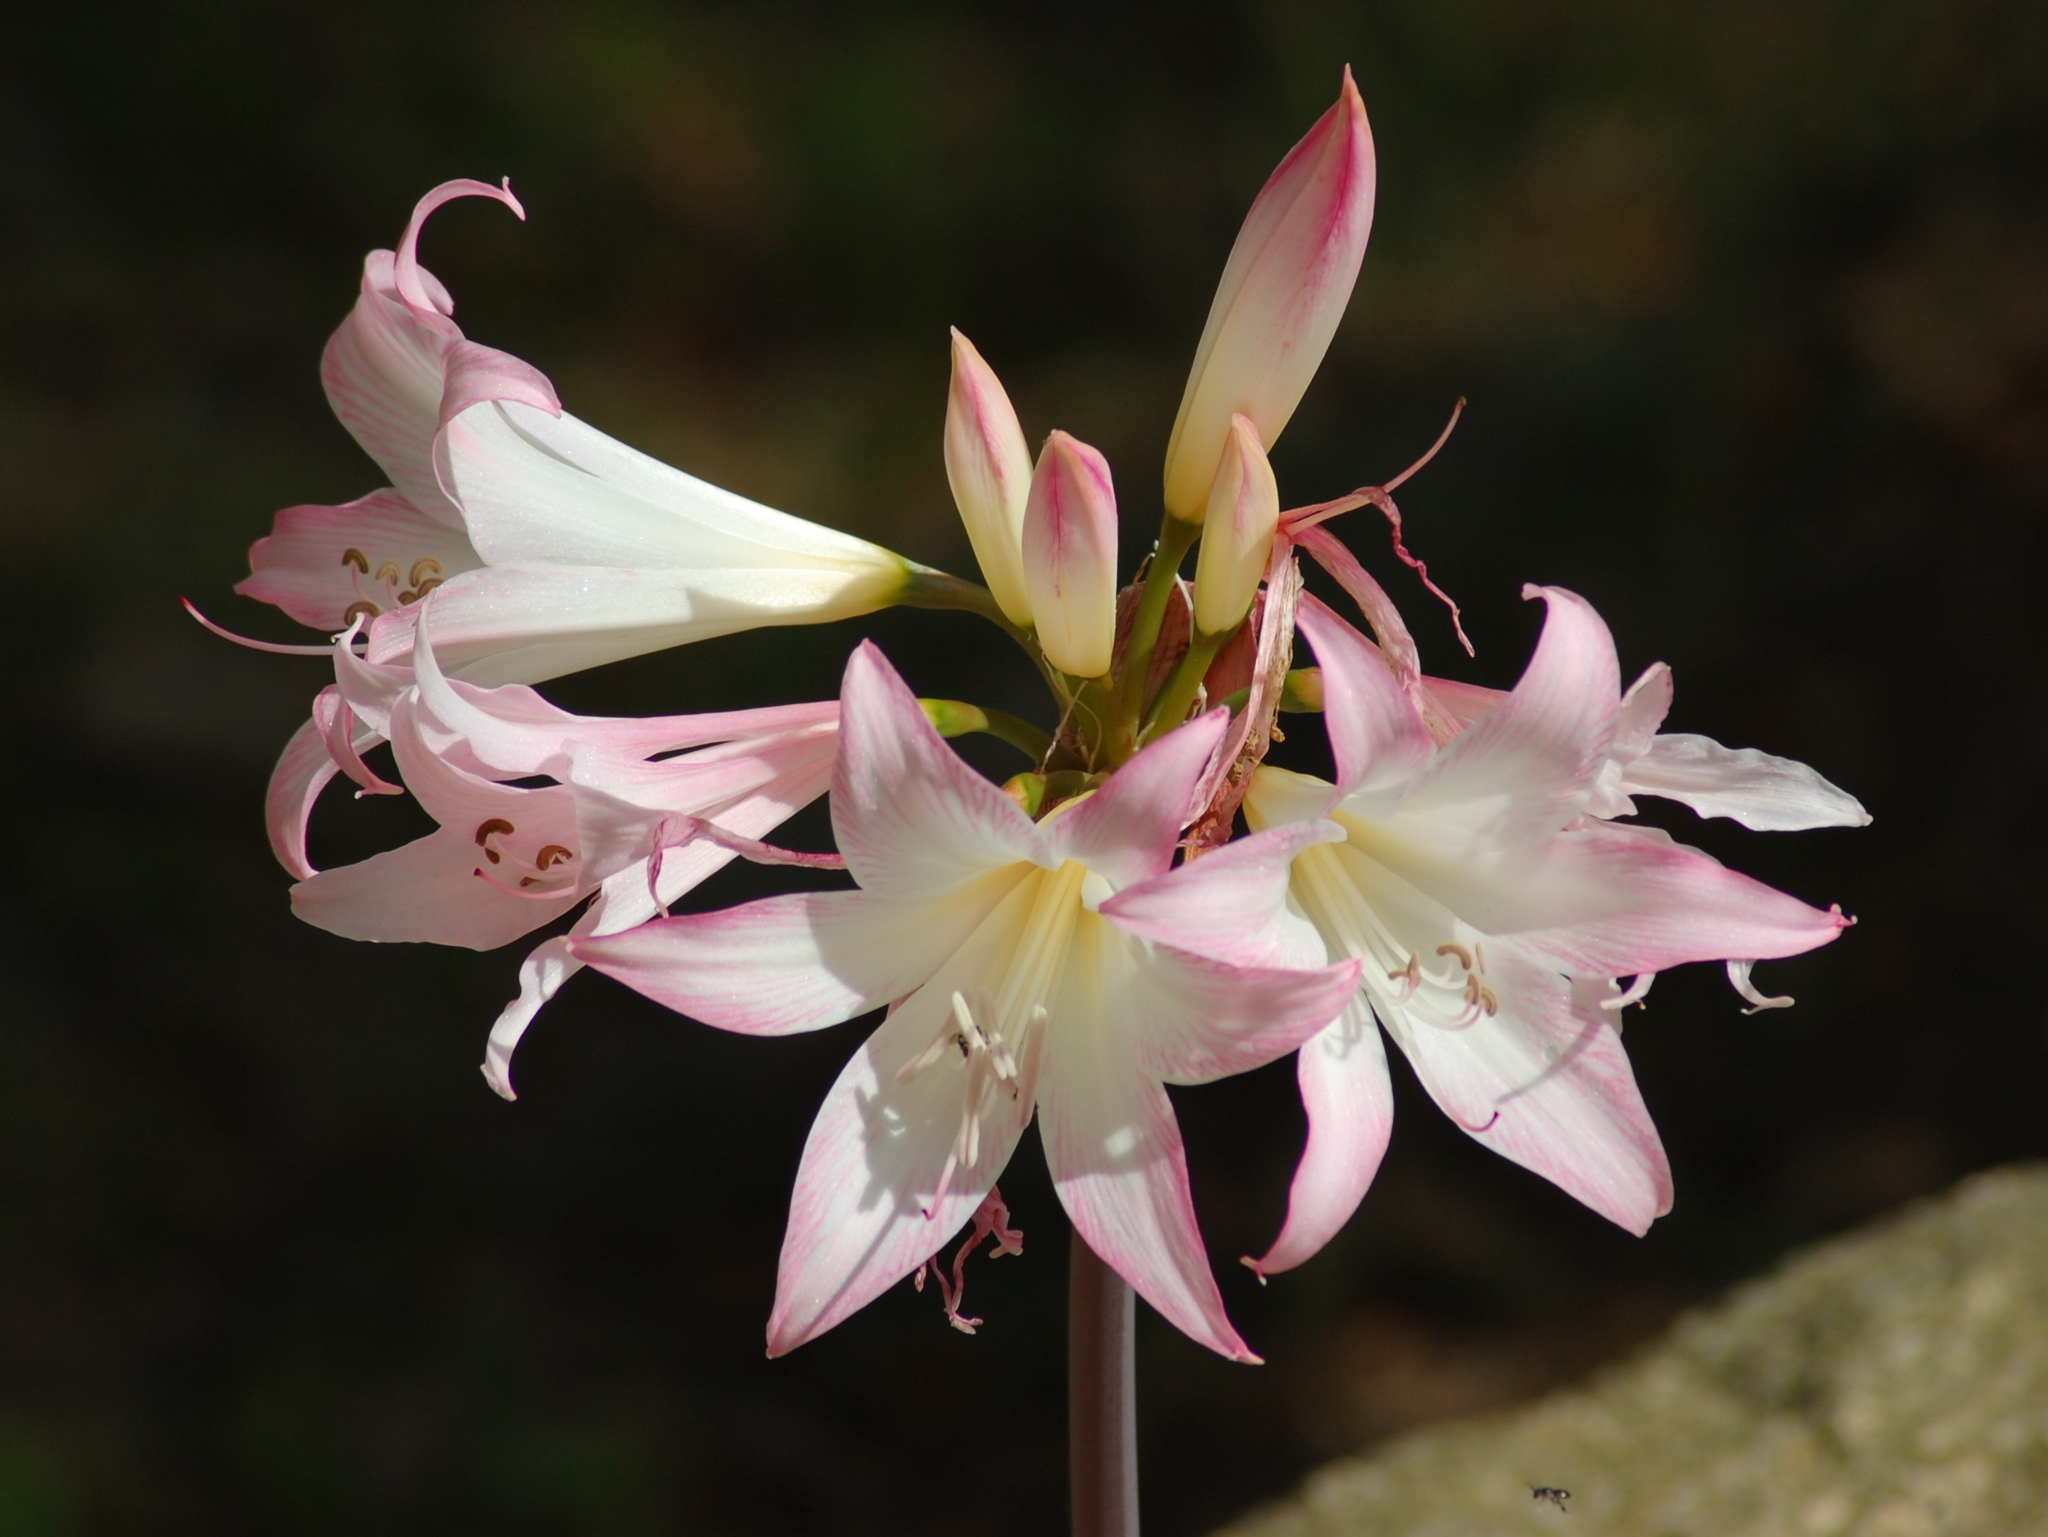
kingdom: Plantae
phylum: Tracheophyta
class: Liliopsida
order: Asparagales
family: Amaryllidaceae
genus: Amaryllis
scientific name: Amaryllis belladonna
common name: Jersey lily
